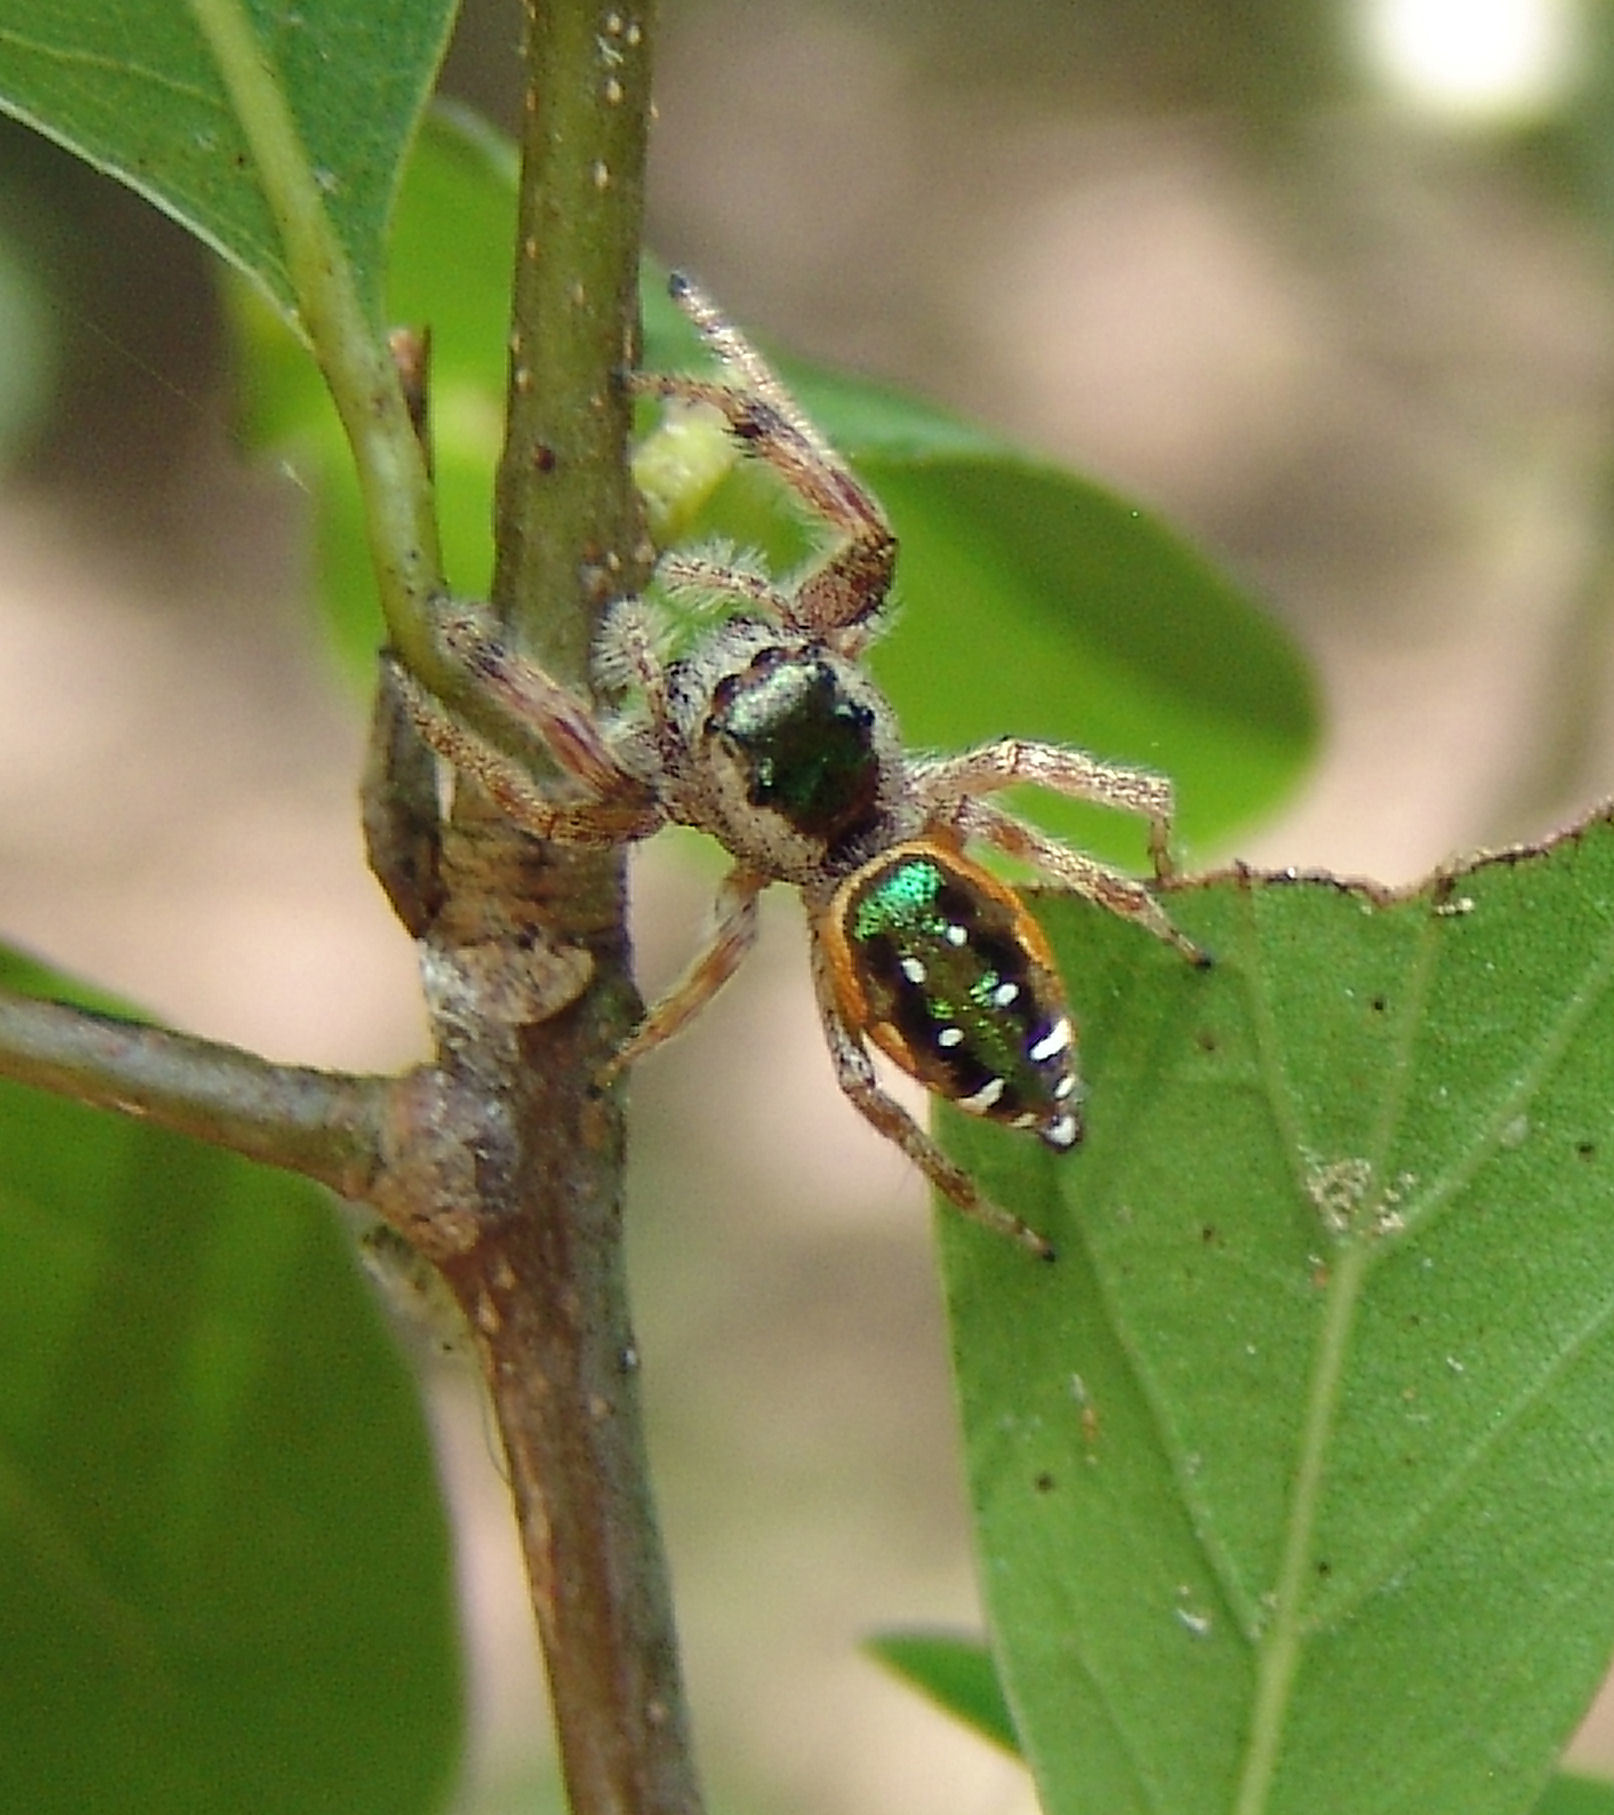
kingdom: Animalia
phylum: Arthropoda
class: Arachnida
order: Araneae
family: Salticidae
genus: Paraphidippus
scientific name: Paraphidippus aurantius
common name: Jumping spiders
